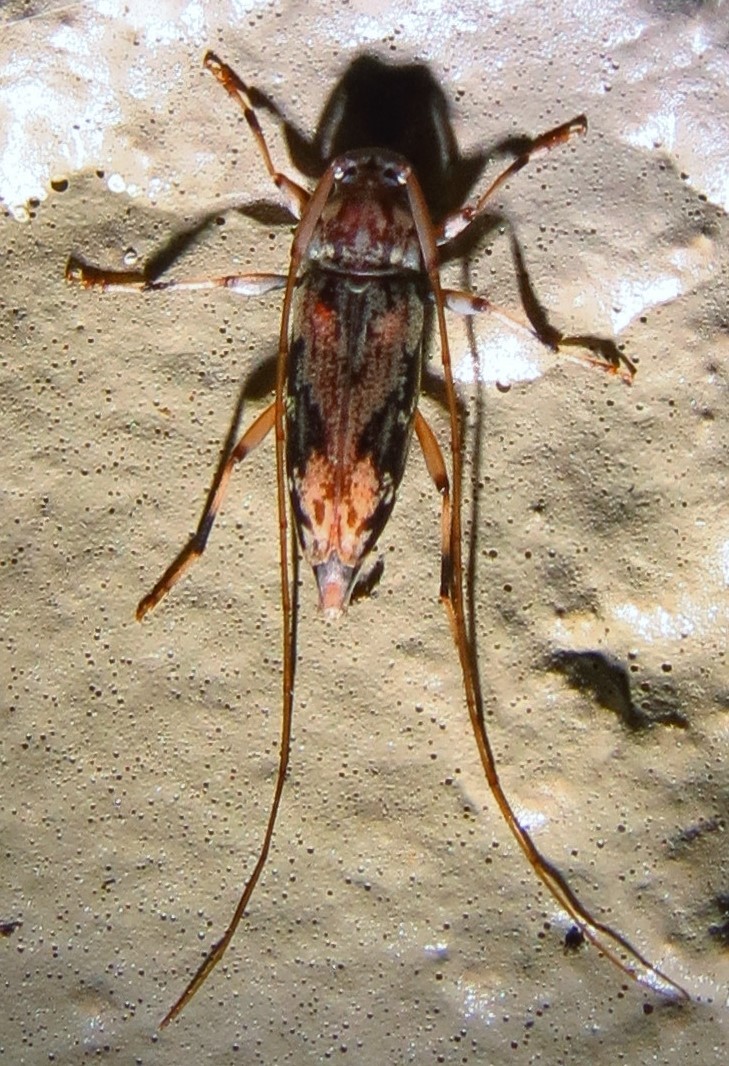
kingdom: Animalia
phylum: Arthropoda
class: Insecta
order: Coleoptera
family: Cerambycidae
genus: Lepturges
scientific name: Lepturges angulatus
